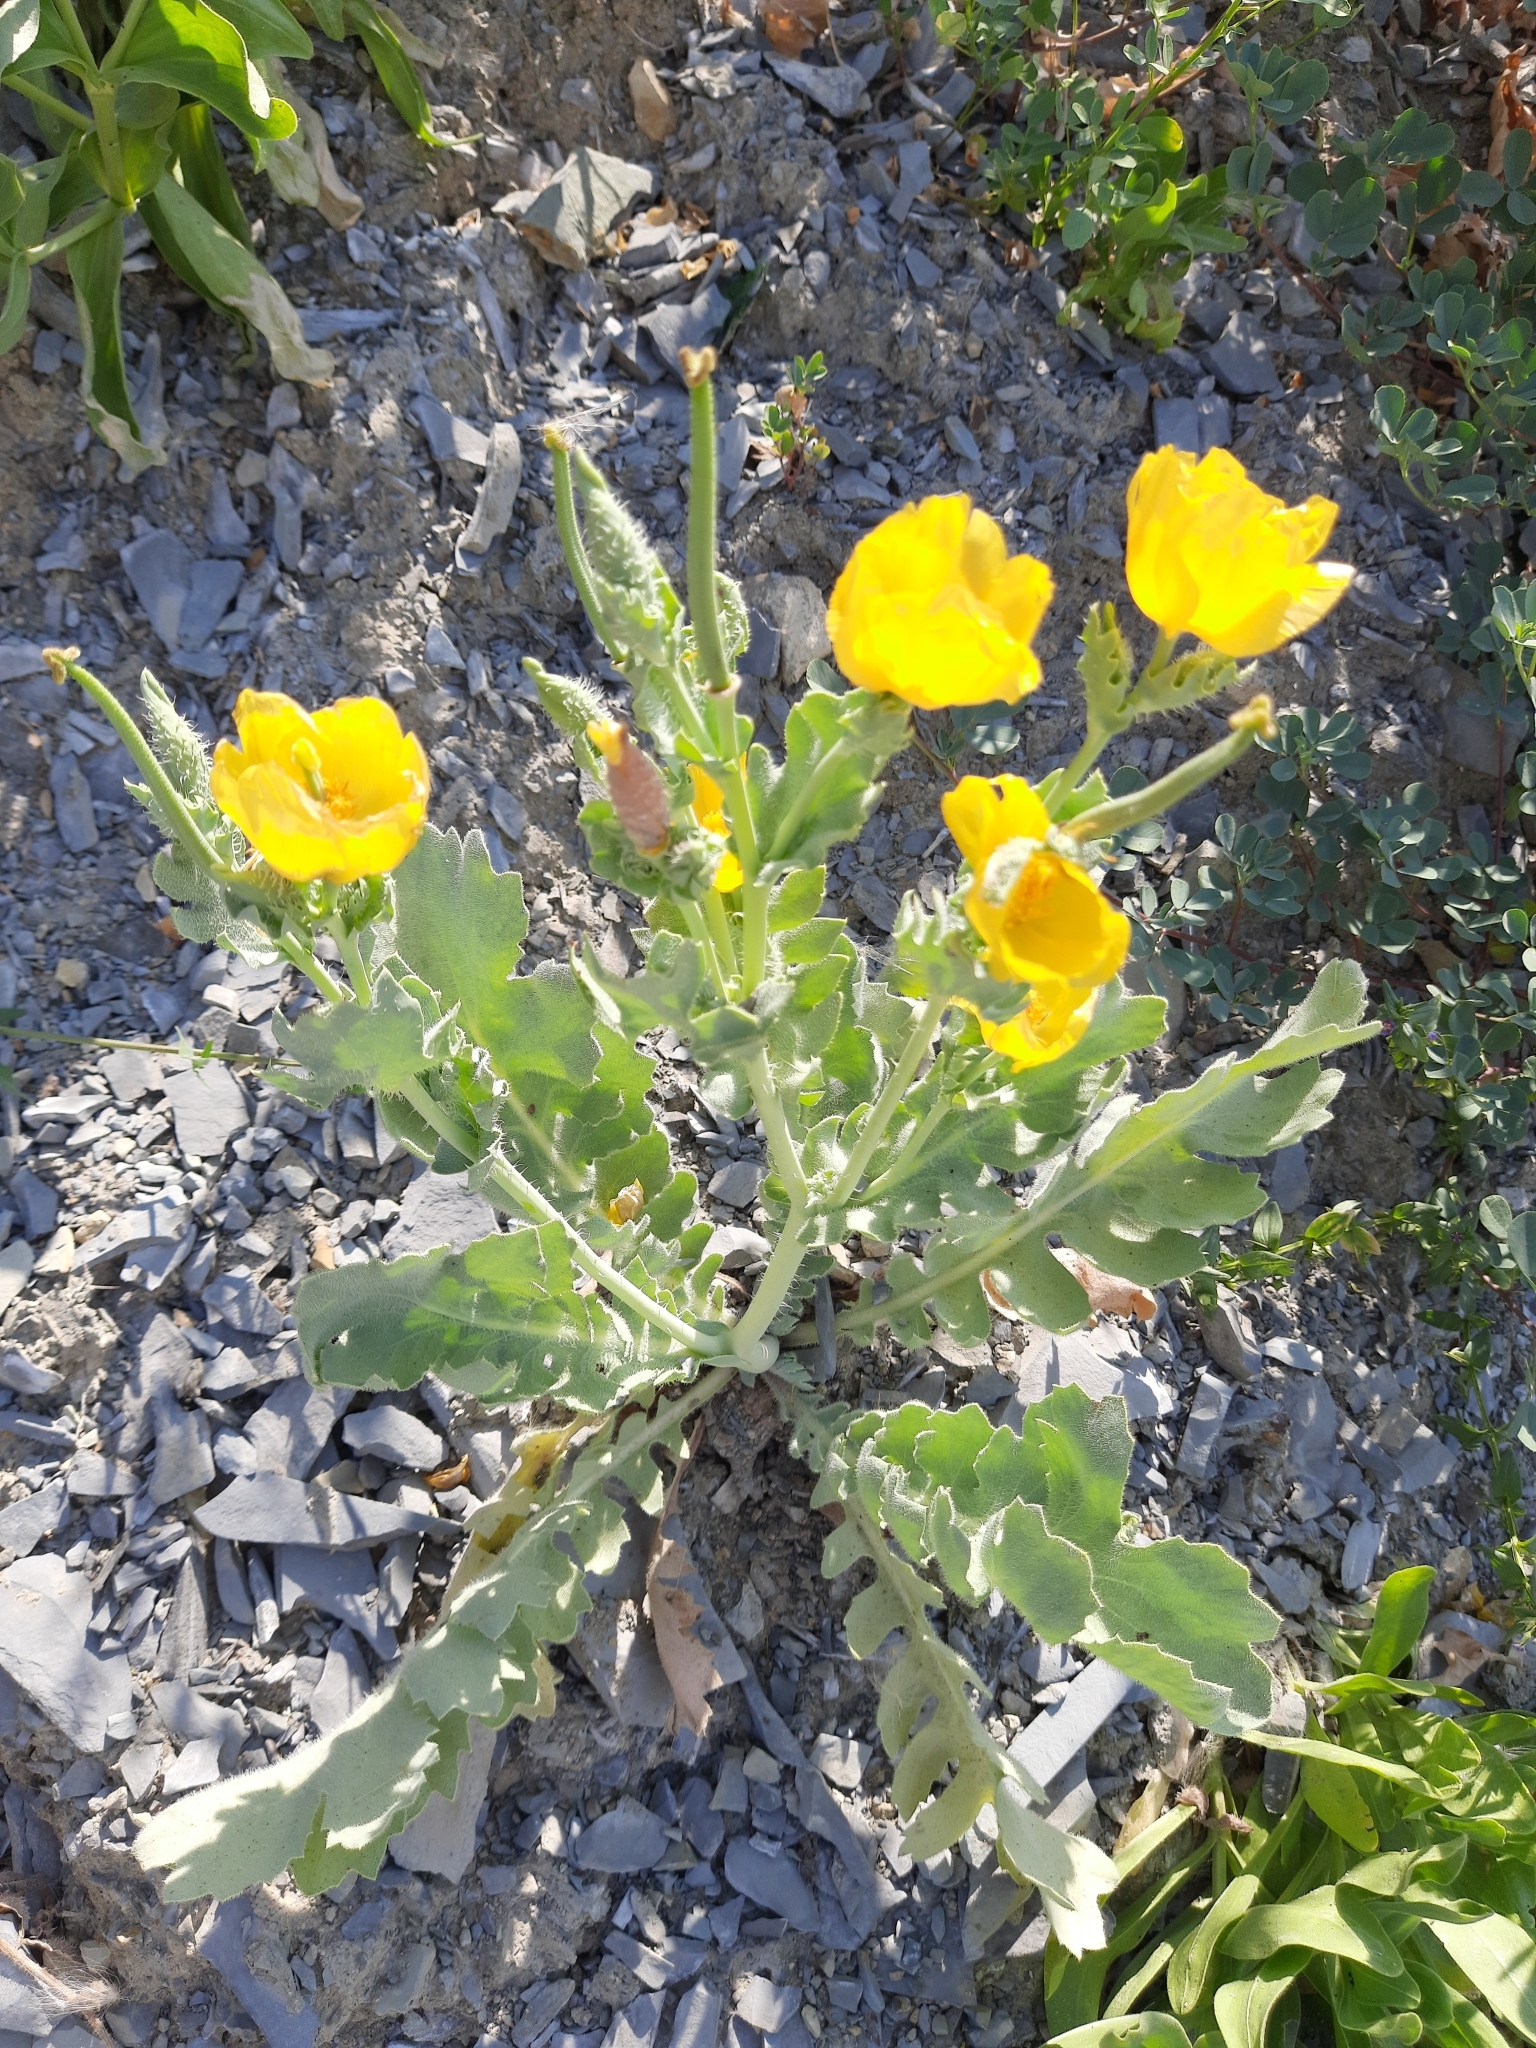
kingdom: Plantae
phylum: Tracheophyta
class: Magnoliopsida
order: Ranunculales
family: Papaveraceae
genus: Glaucium
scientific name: Glaucium flavum
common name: Yellow horned-poppy
